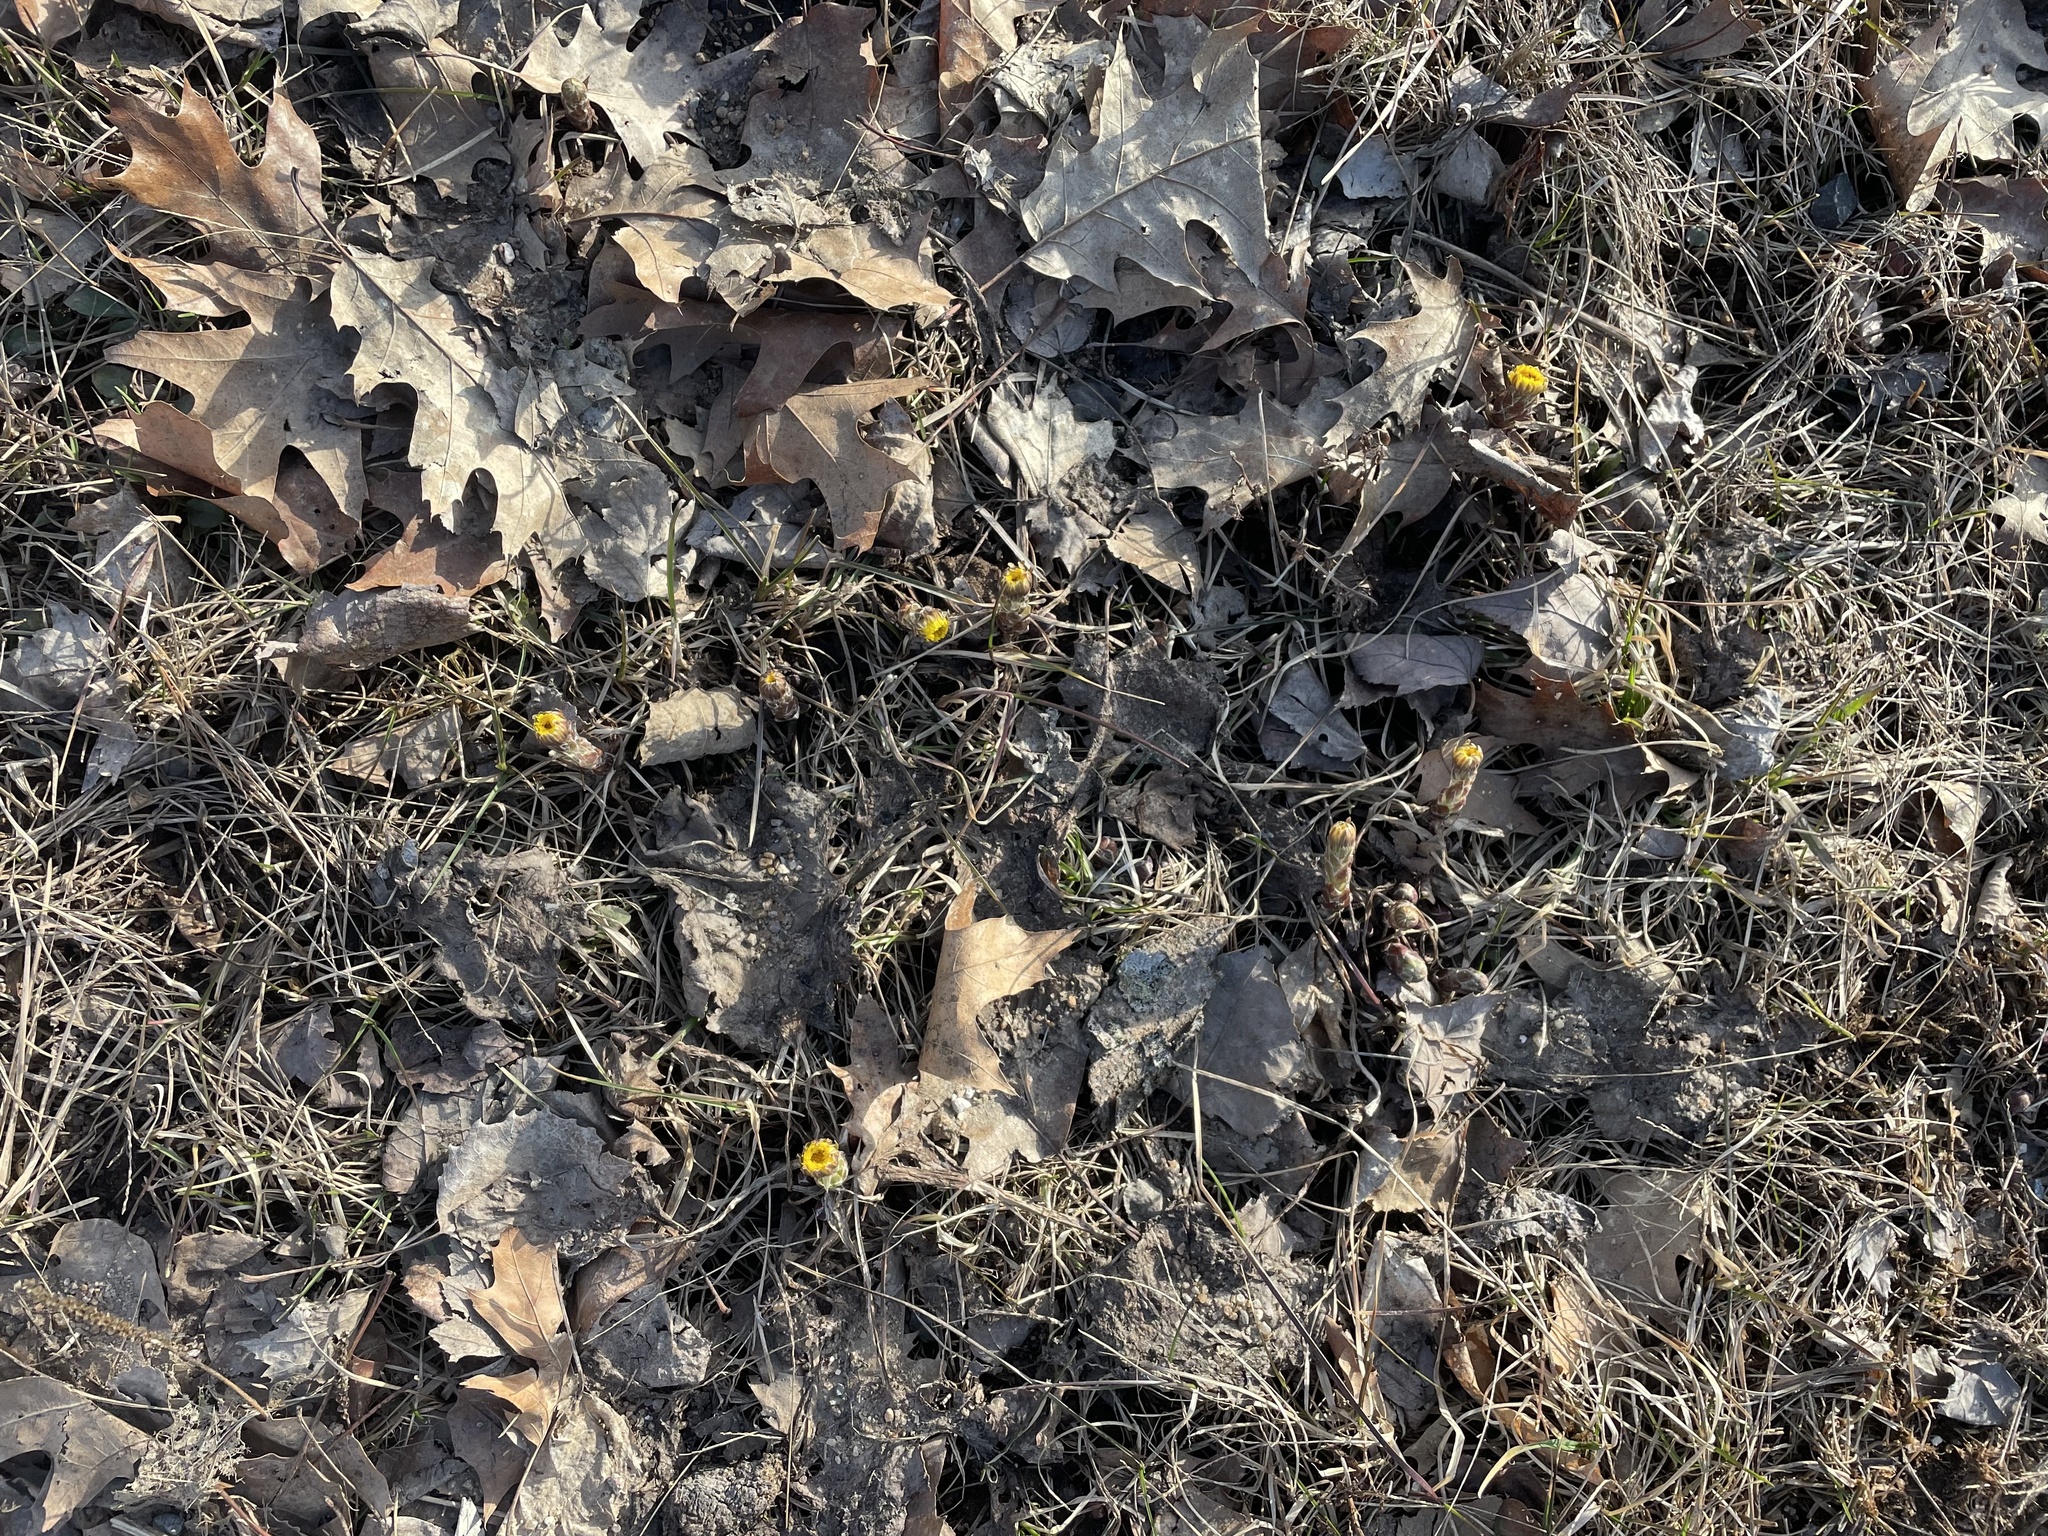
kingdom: Plantae
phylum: Tracheophyta
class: Magnoliopsida
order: Asterales
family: Asteraceae
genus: Tussilago
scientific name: Tussilago farfara
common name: Coltsfoot
